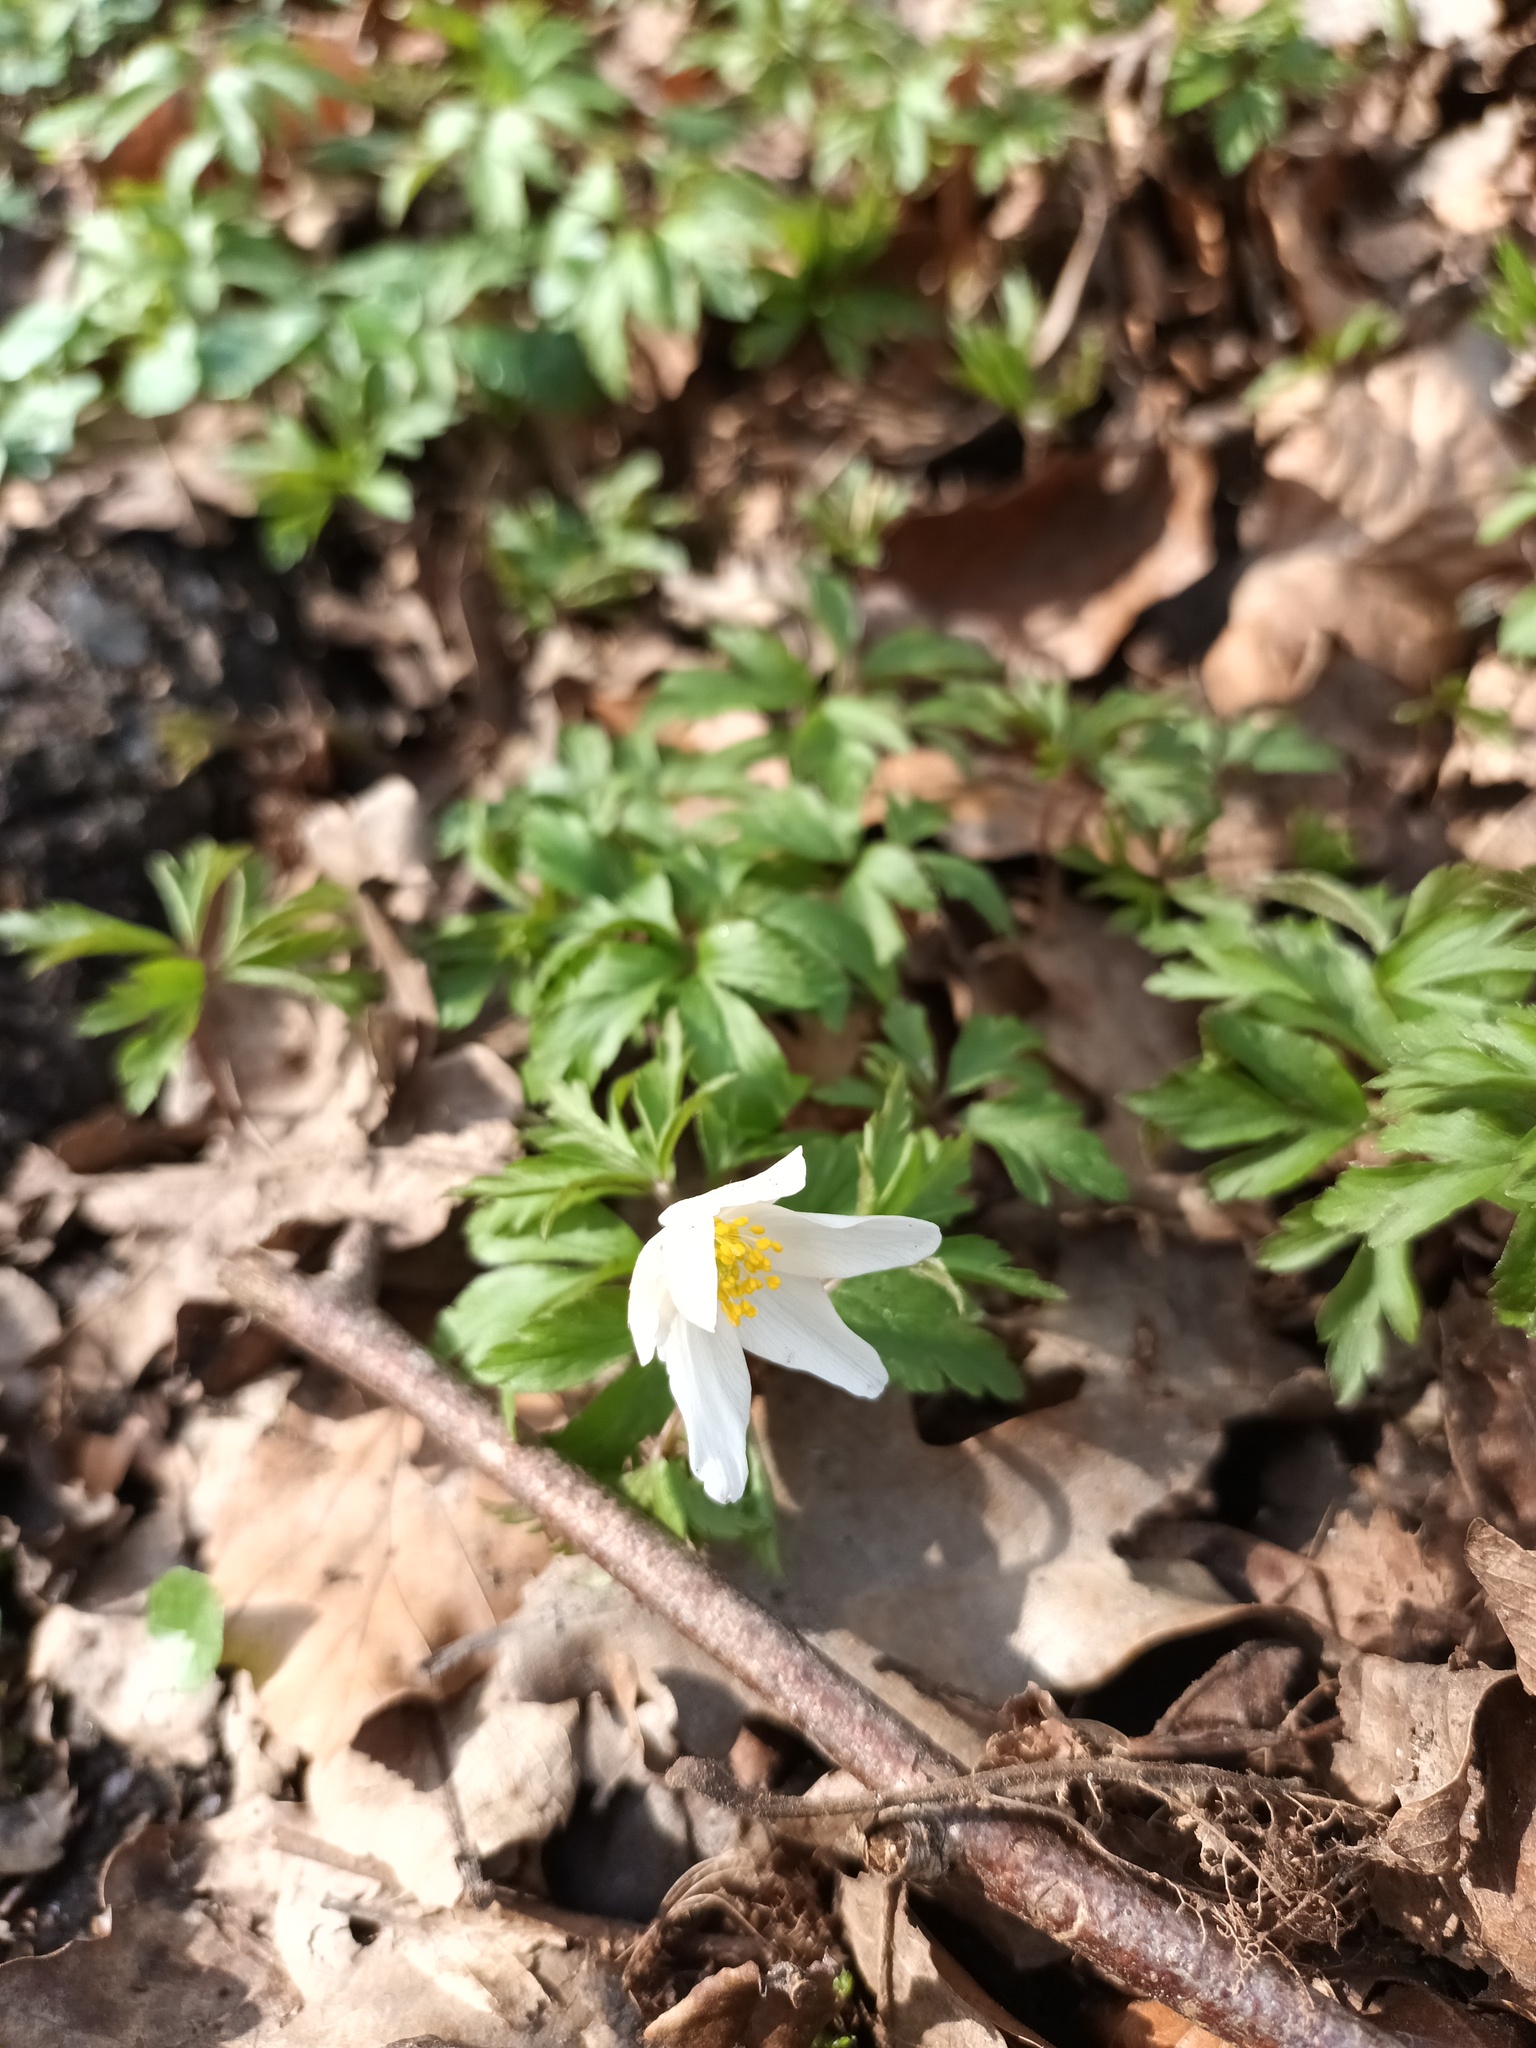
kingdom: Plantae
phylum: Tracheophyta
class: Magnoliopsida
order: Ranunculales
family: Ranunculaceae
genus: Anemone
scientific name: Anemone nemorosa
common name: Wood anemone
